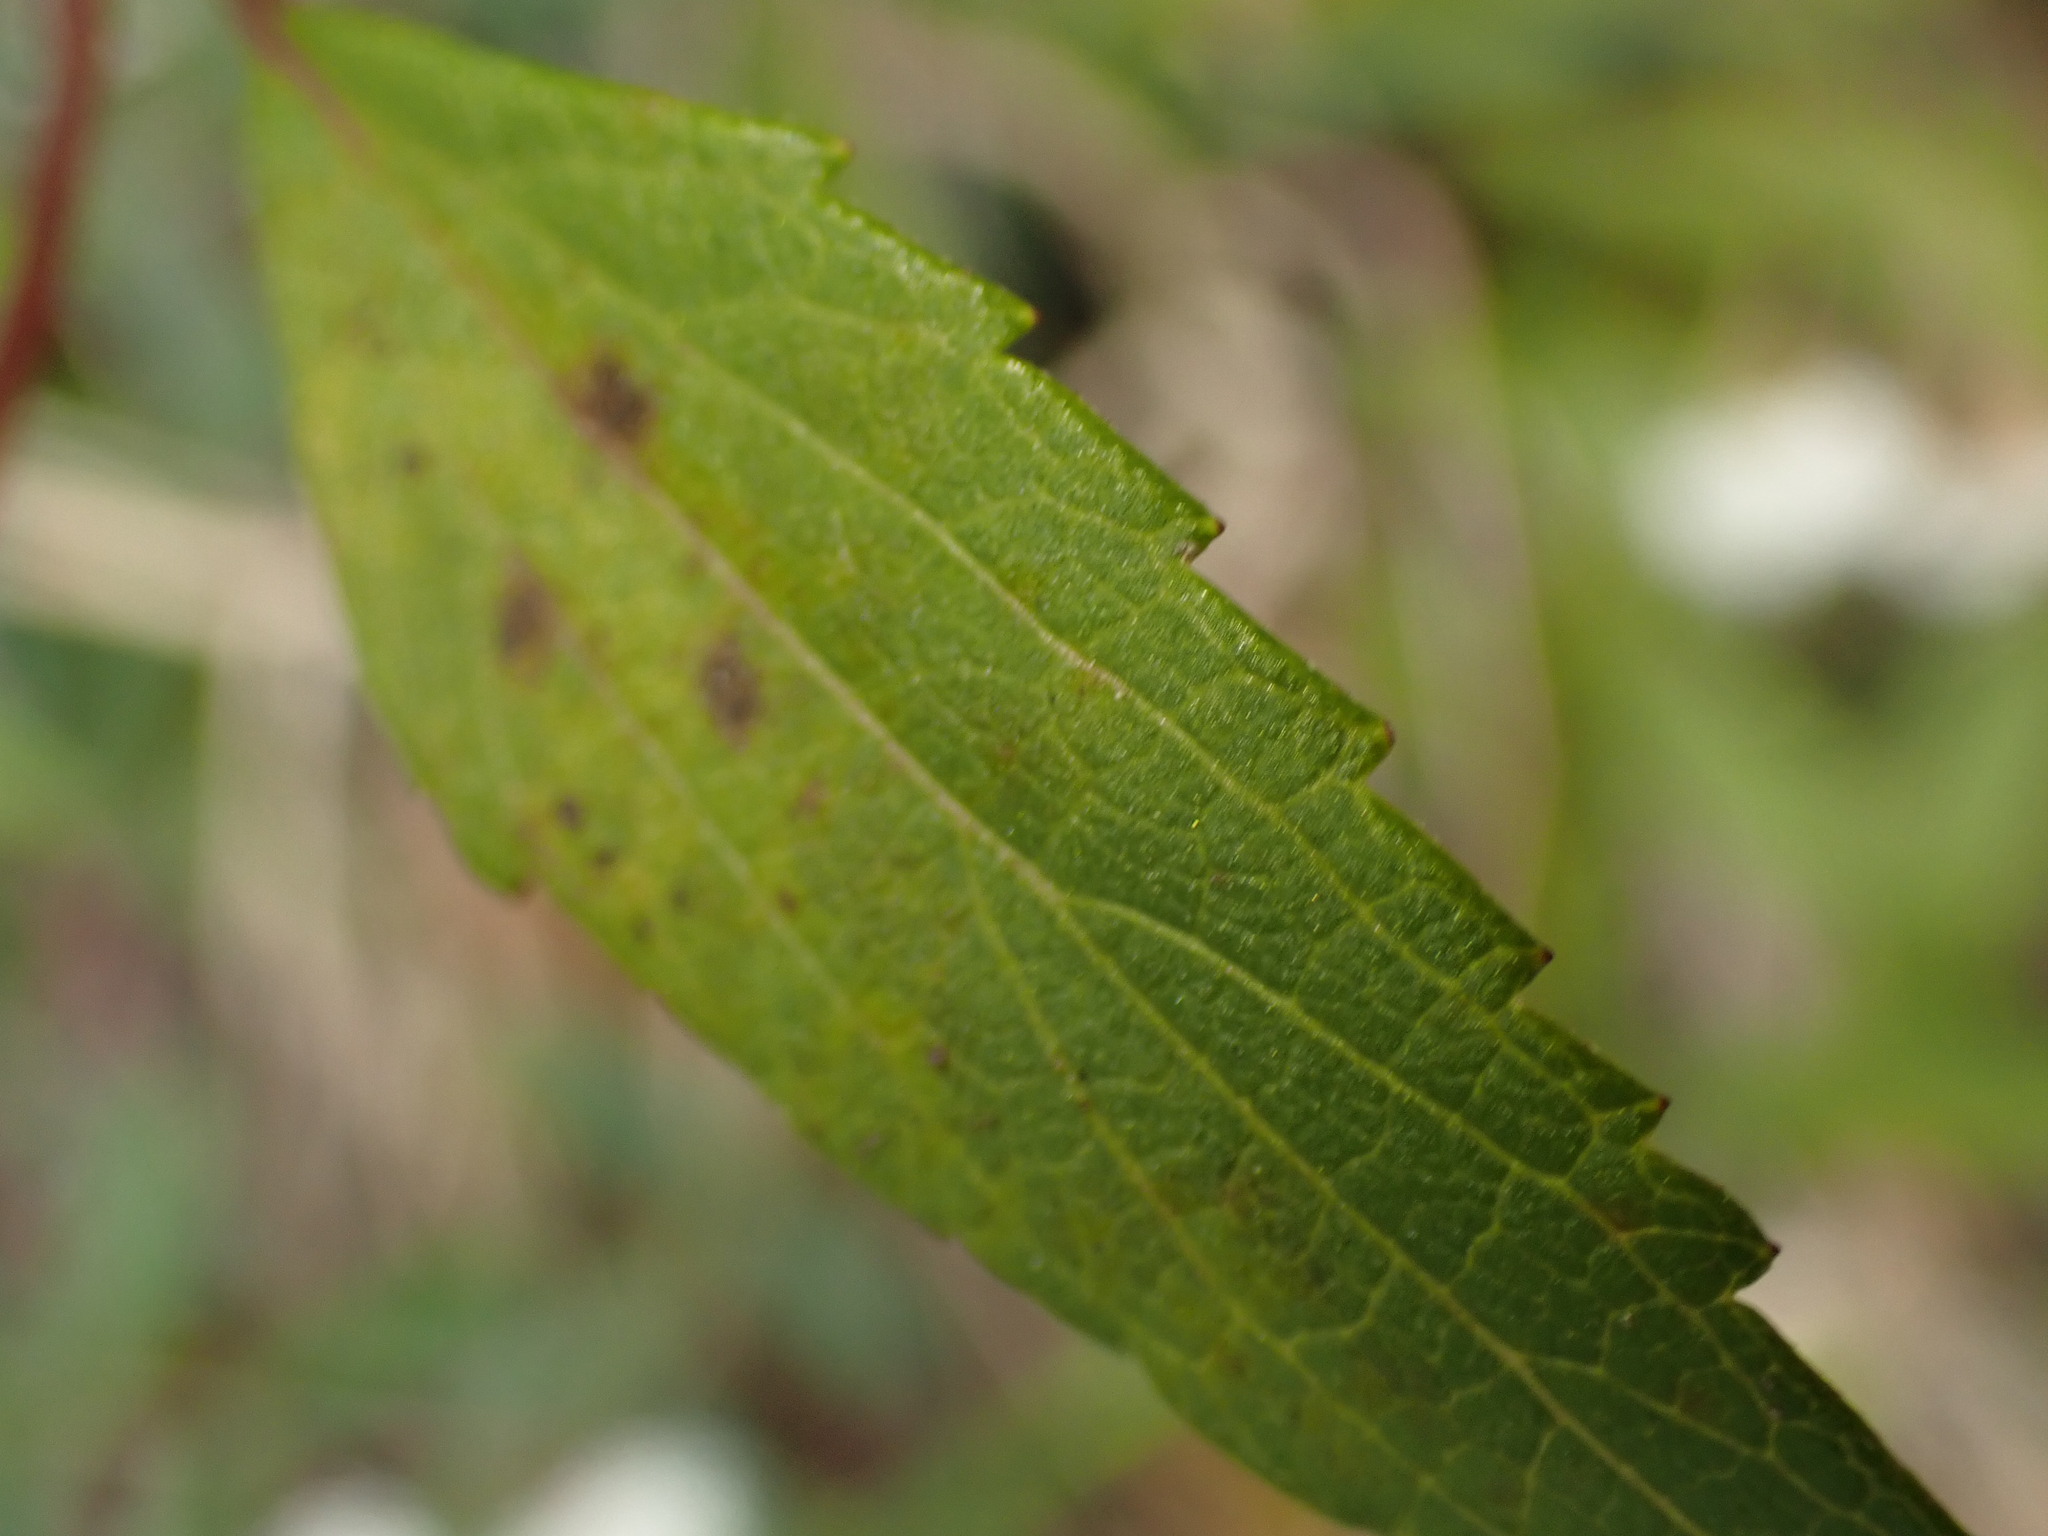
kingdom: Plantae
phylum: Tracheophyta
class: Magnoliopsida
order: Asterales
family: Asteraceae
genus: Ageratina
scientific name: Ageratina riparia
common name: Creeping croftonweed
